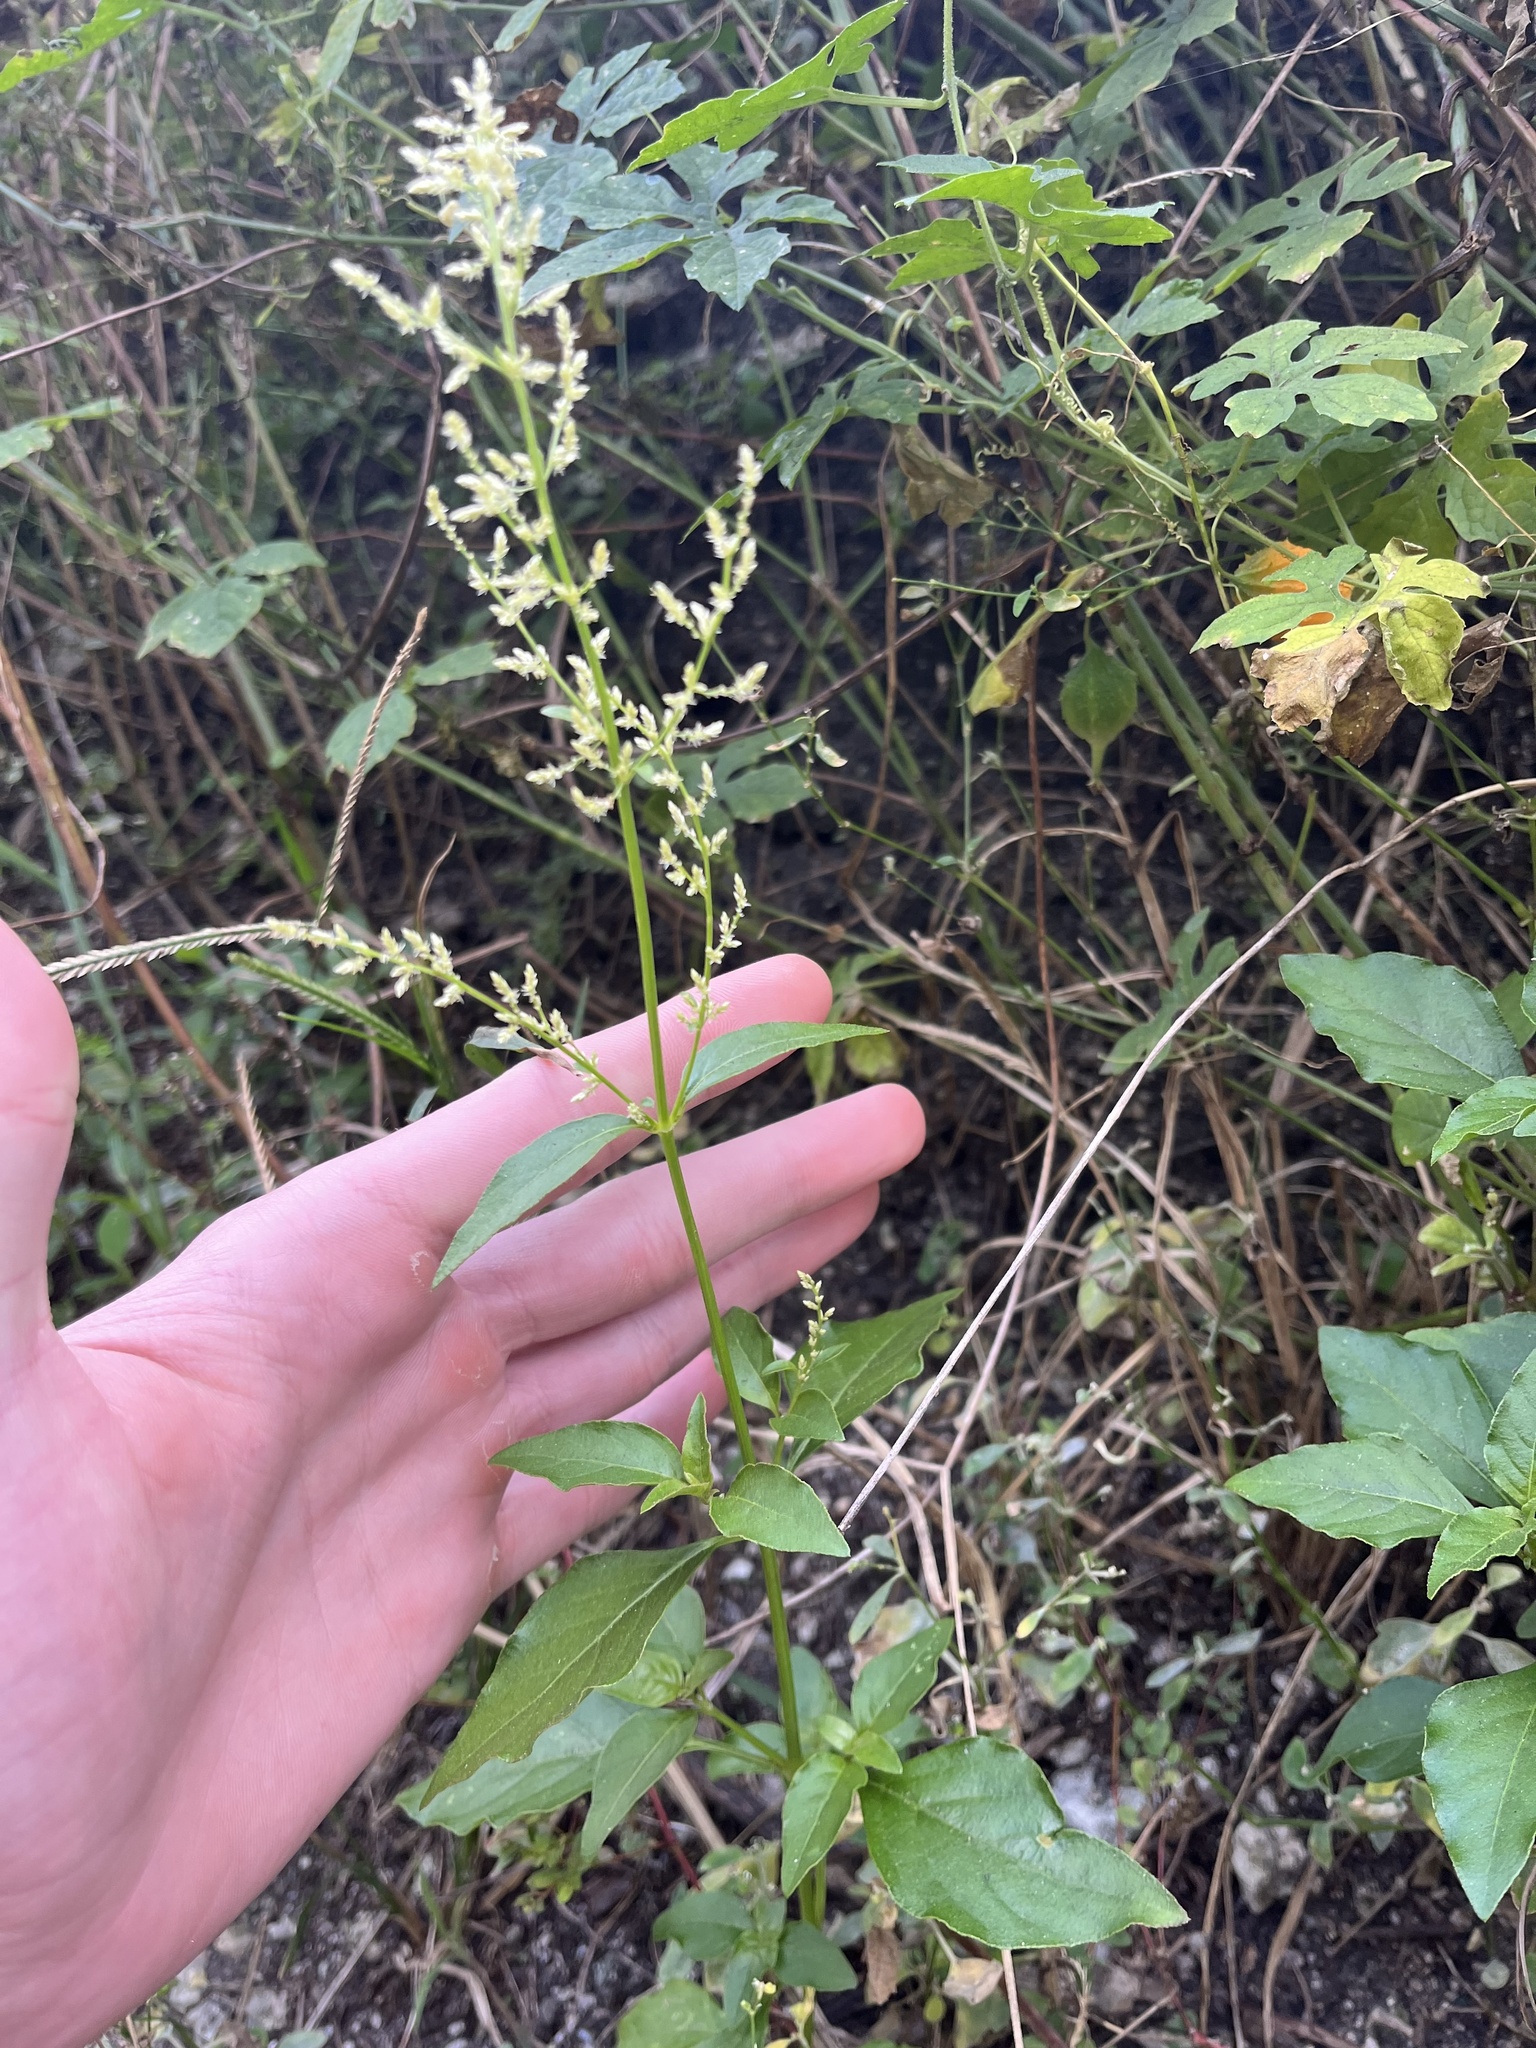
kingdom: Plantae
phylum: Tracheophyta
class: Magnoliopsida
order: Caryophyllales
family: Amaranthaceae
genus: Iresine
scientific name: Iresine diffusa
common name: Juba's-bush
